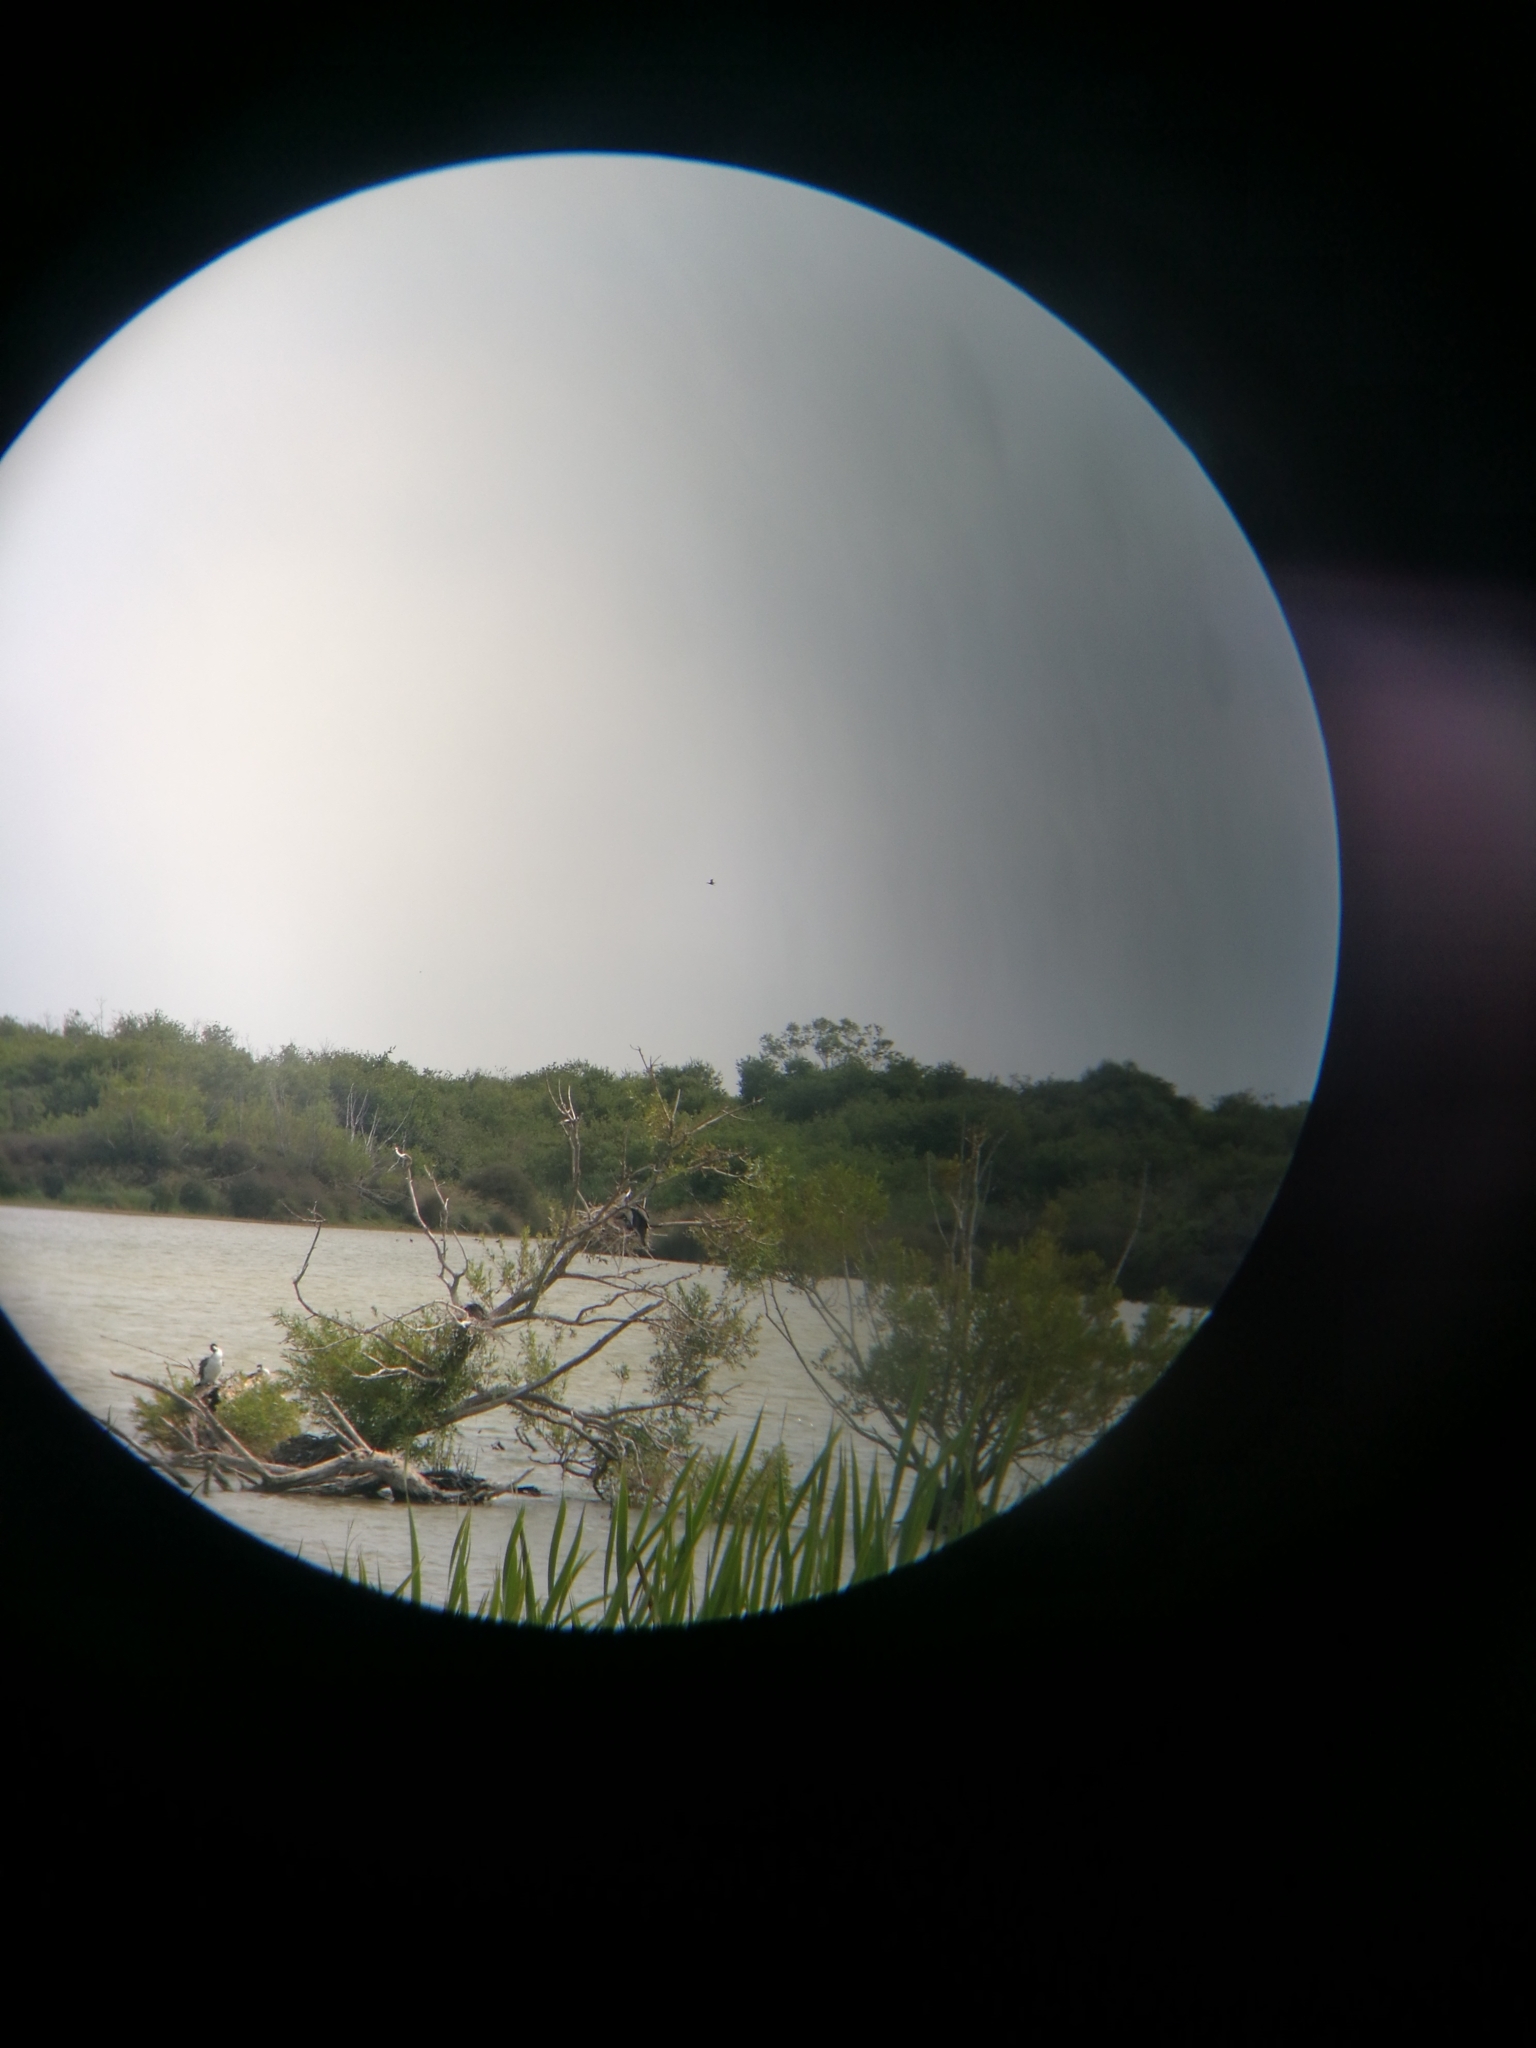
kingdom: Animalia
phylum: Chordata
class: Aves
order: Suliformes
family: Phalacrocoracidae
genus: Phalacrocorax
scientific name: Phalacrocorax varius
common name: Pied cormorant
